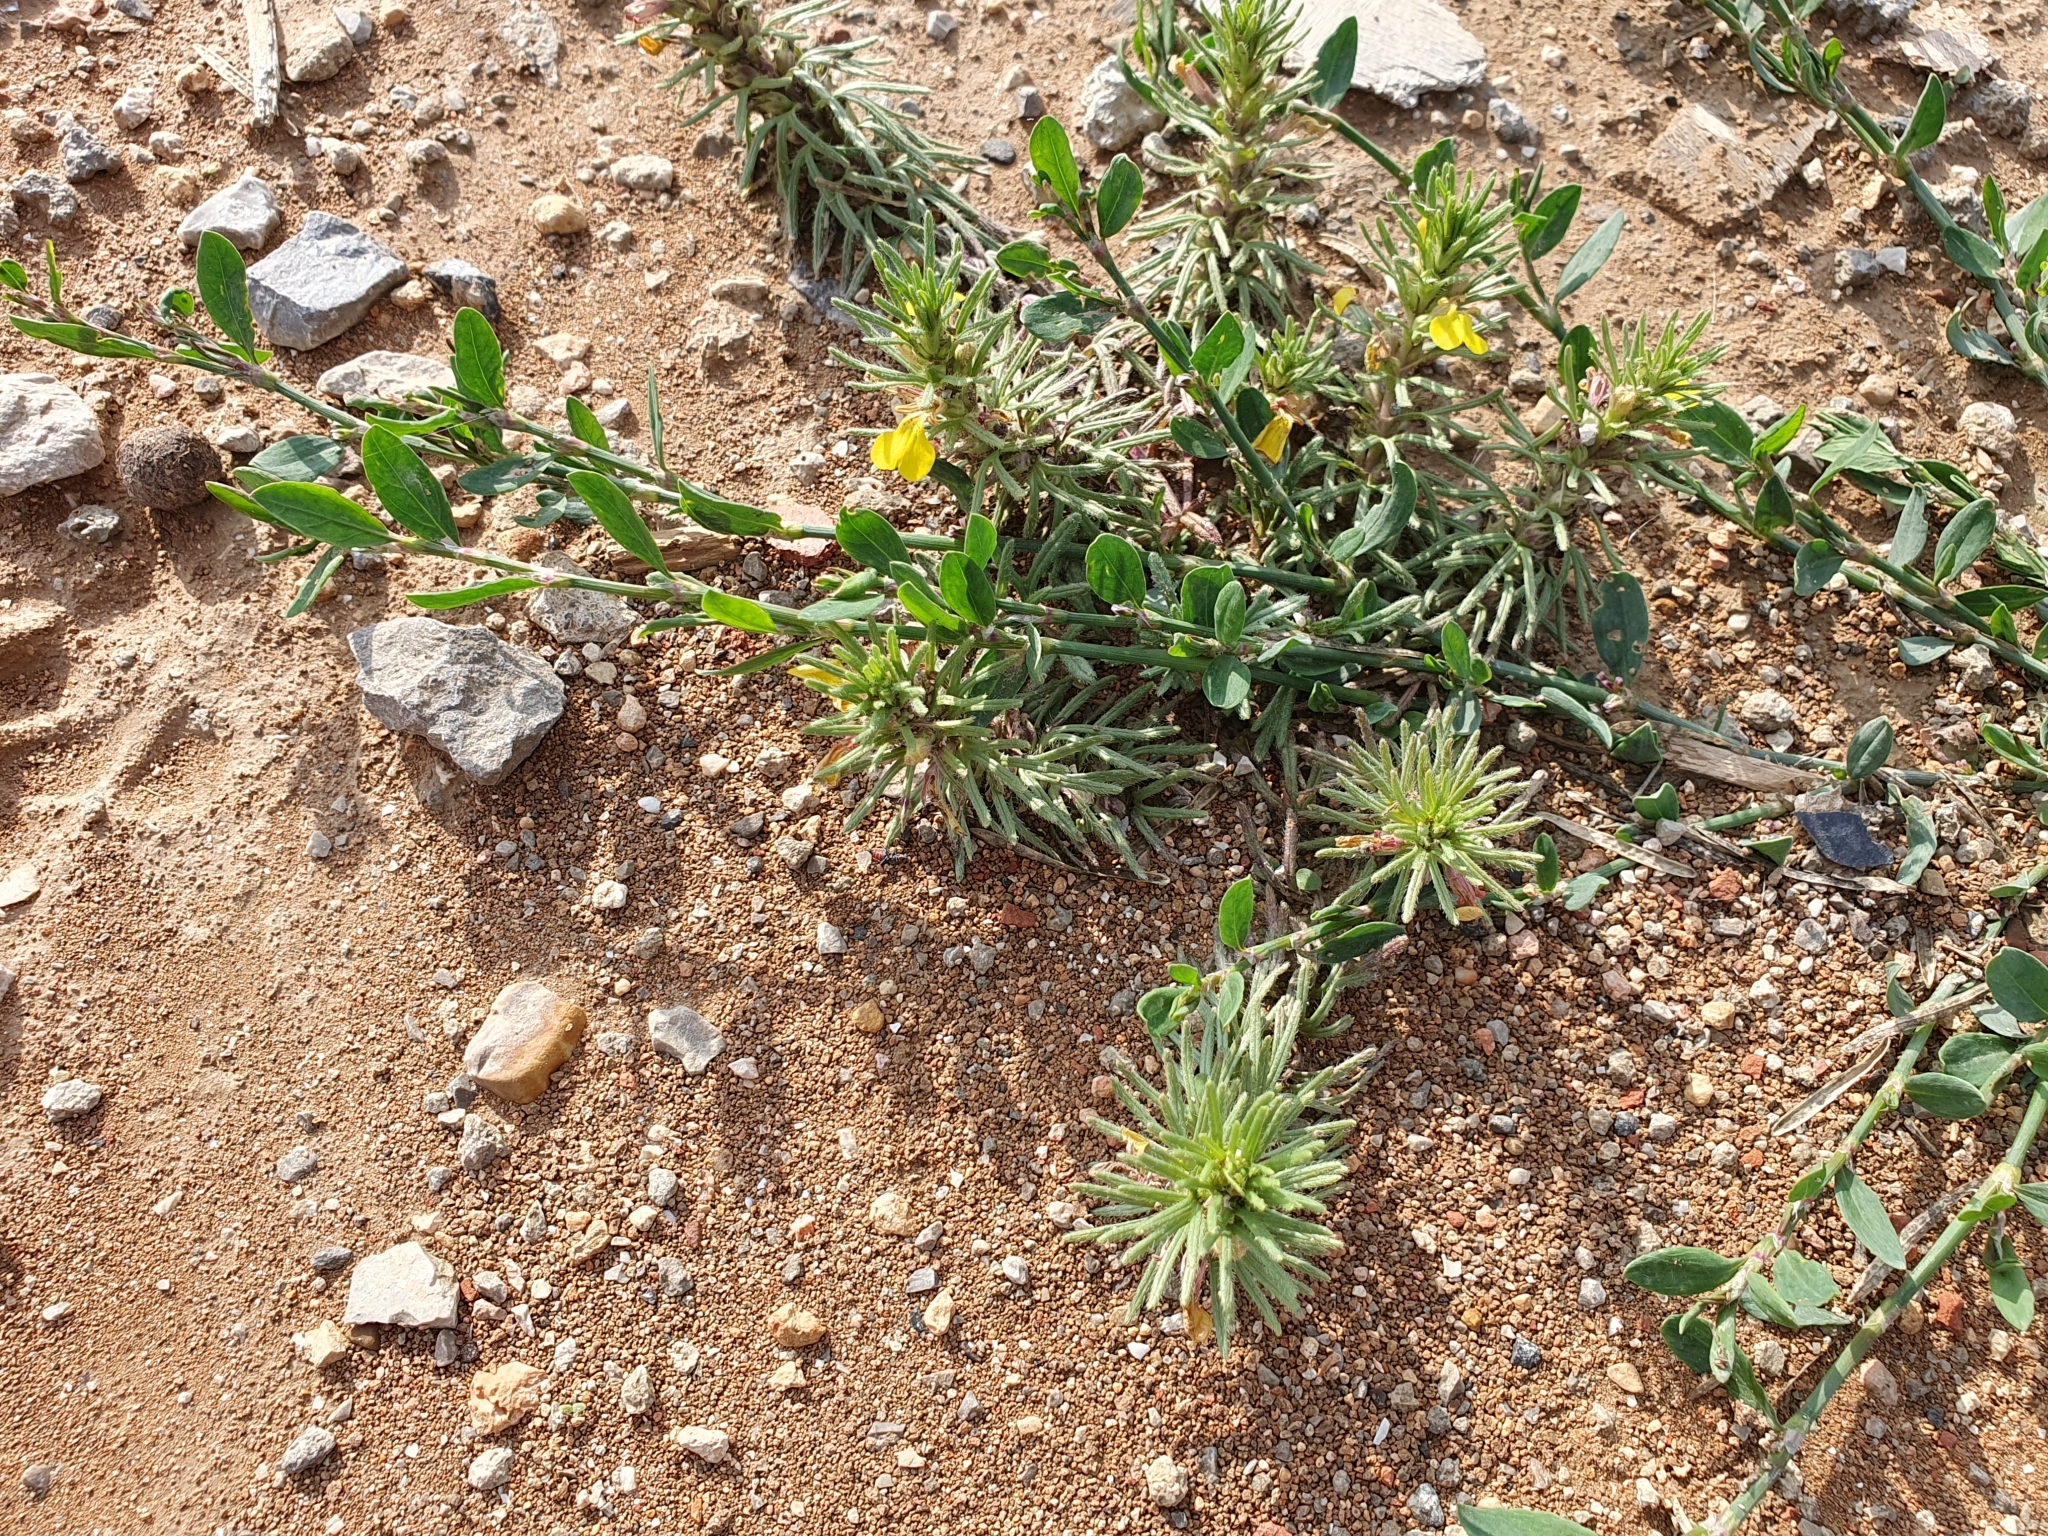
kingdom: Plantae
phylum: Tracheophyta
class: Magnoliopsida
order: Lamiales
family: Lamiaceae
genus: Ajuga
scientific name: Ajuga chamaepitys
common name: Ground-pine
